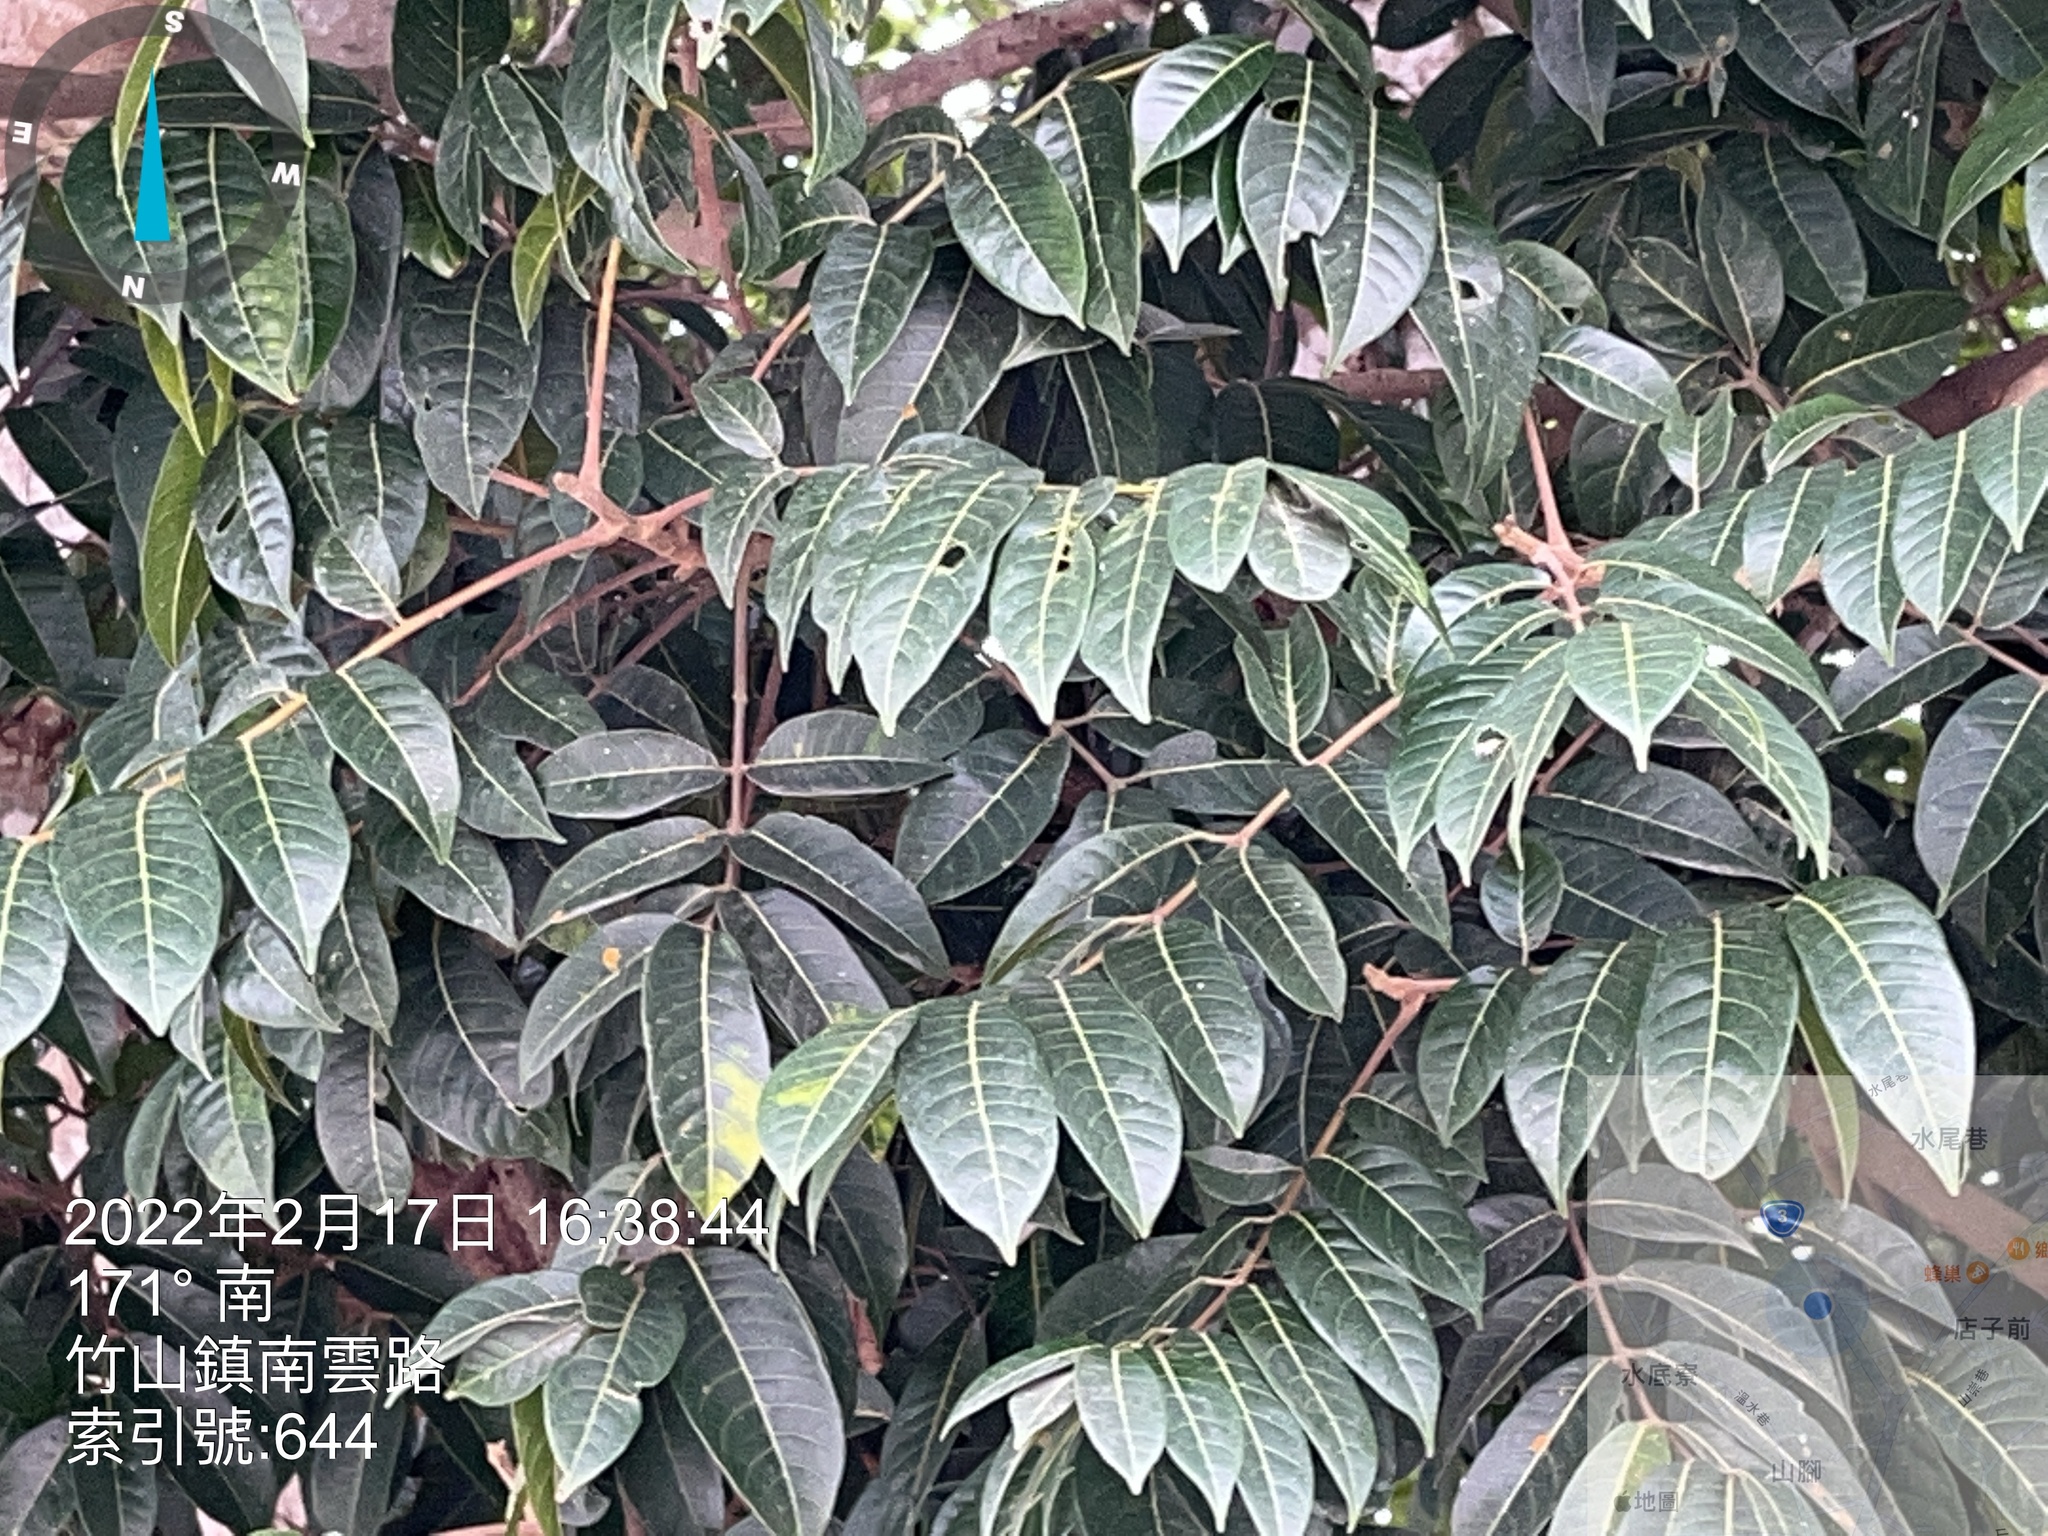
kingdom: Plantae
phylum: Tracheophyta
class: Magnoliopsida
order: Sapindales
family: Burseraceae
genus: Canarium
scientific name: Canarium subulatum
